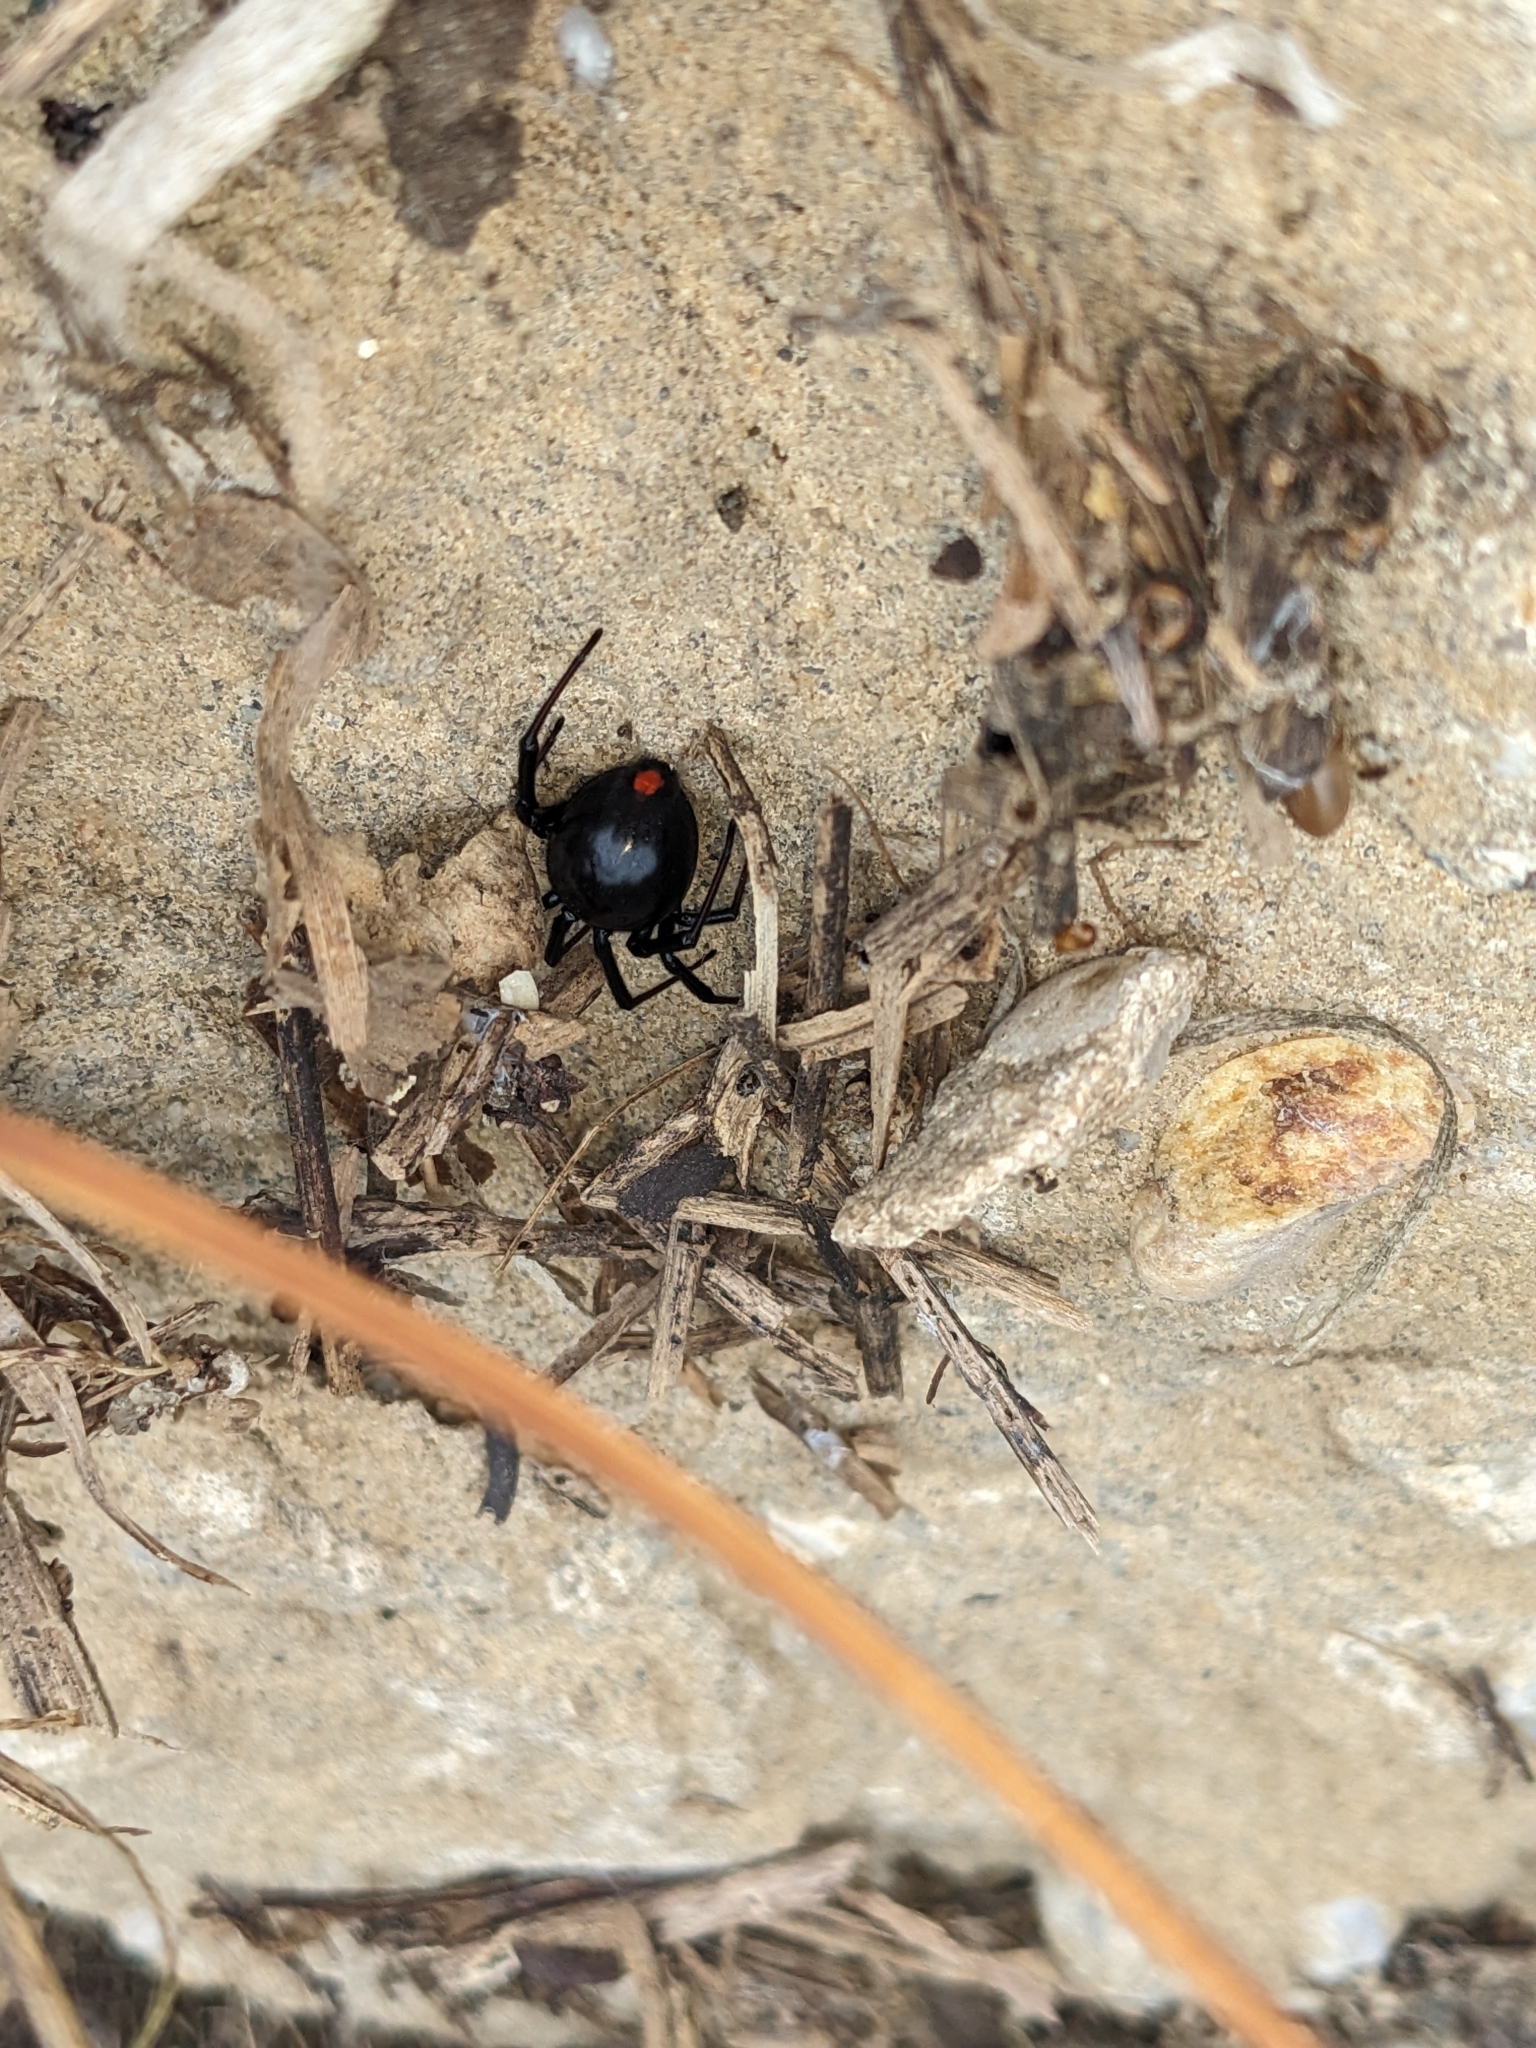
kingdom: Animalia
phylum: Arthropoda
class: Arachnida
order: Araneae
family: Theridiidae
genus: Latrodectus
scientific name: Latrodectus mactans
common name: Cobweb spiders
